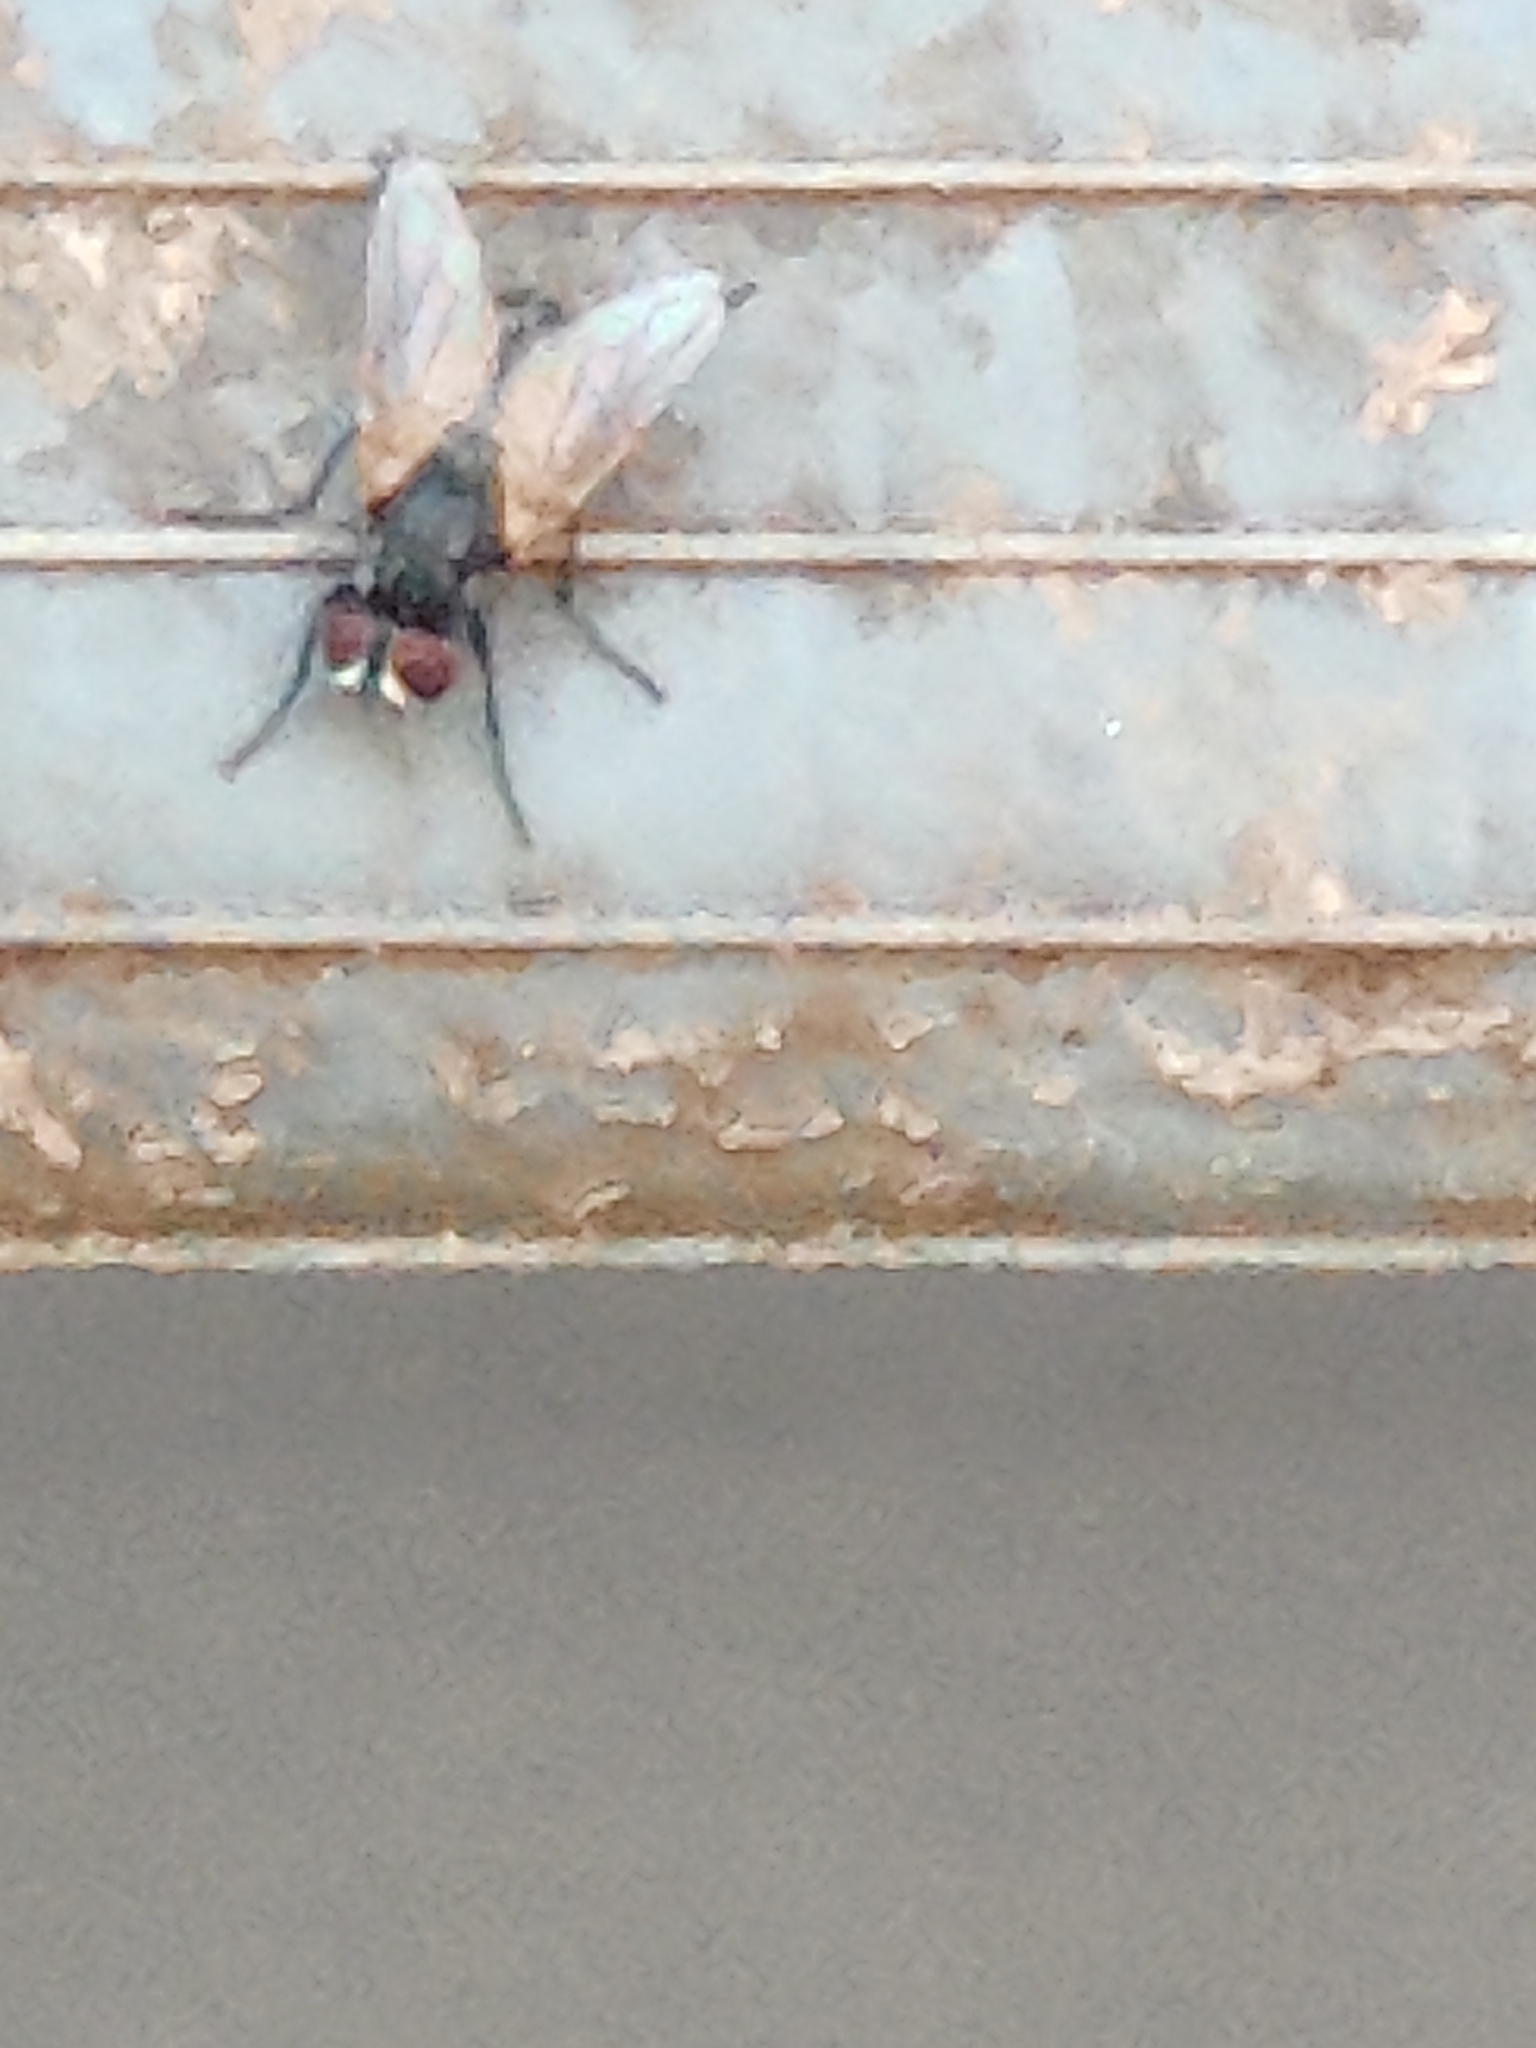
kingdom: Animalia
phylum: Arthropoda
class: Insecta
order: Diptera
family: Muscidae
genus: Musca
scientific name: Musca domestica
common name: House fly
